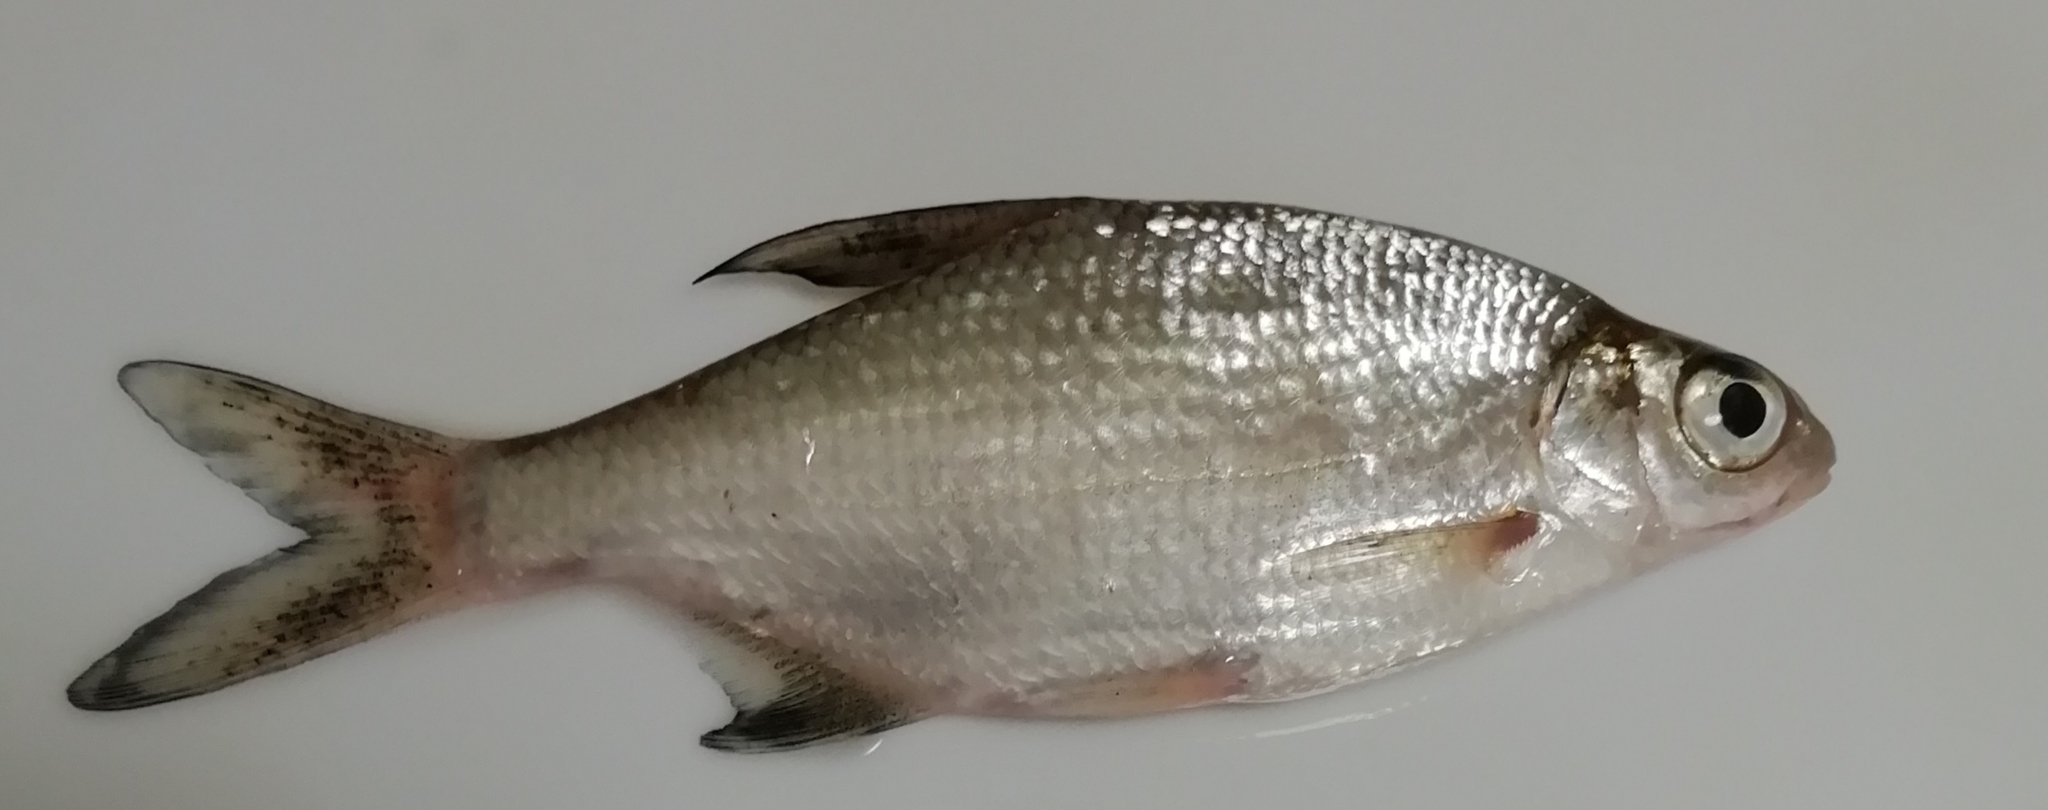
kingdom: Animalia
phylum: Chordata
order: Cypriniformes
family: Cyprinidae
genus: Blicca
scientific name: Blicca bjoerkna
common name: White bream
